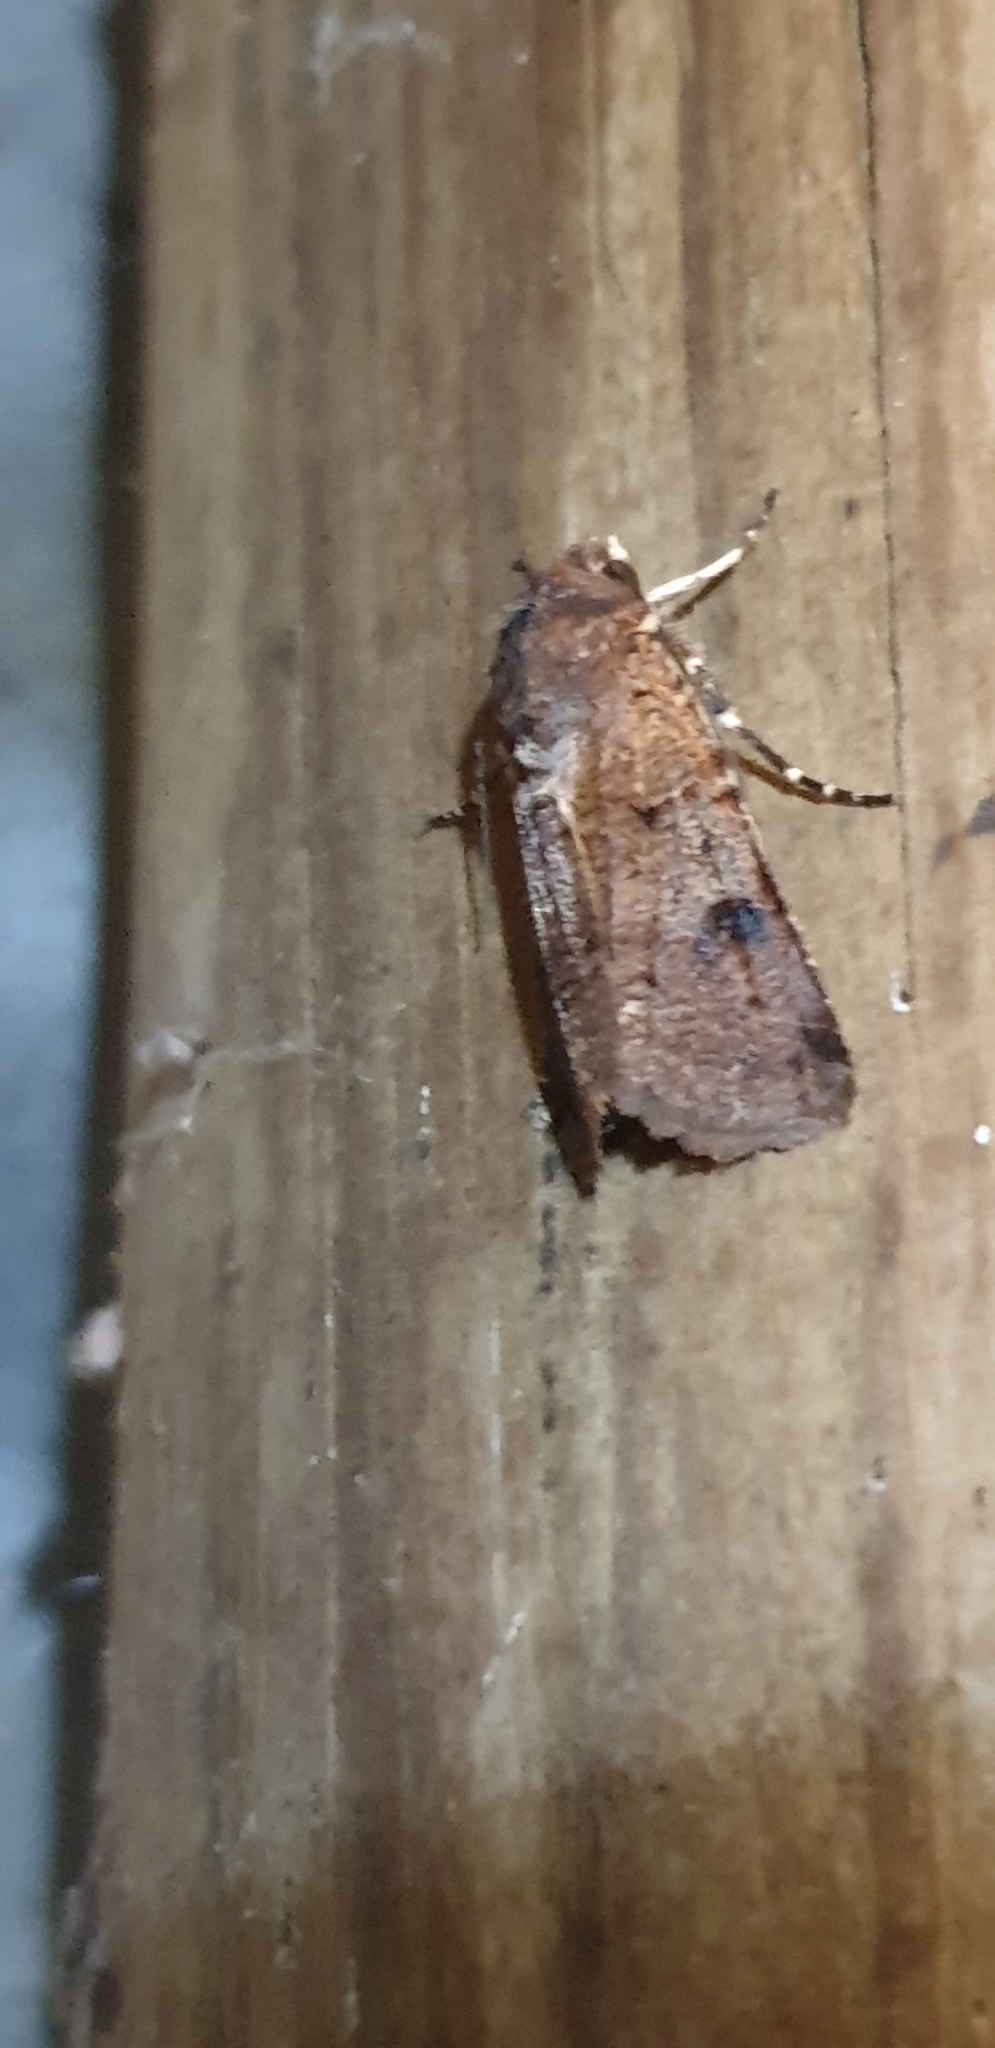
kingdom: Animalia
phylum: Arthropoda
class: Insecta
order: Lepidoptera
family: Noctuidae
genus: Agrotis
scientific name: Agrotis porphyricollis
